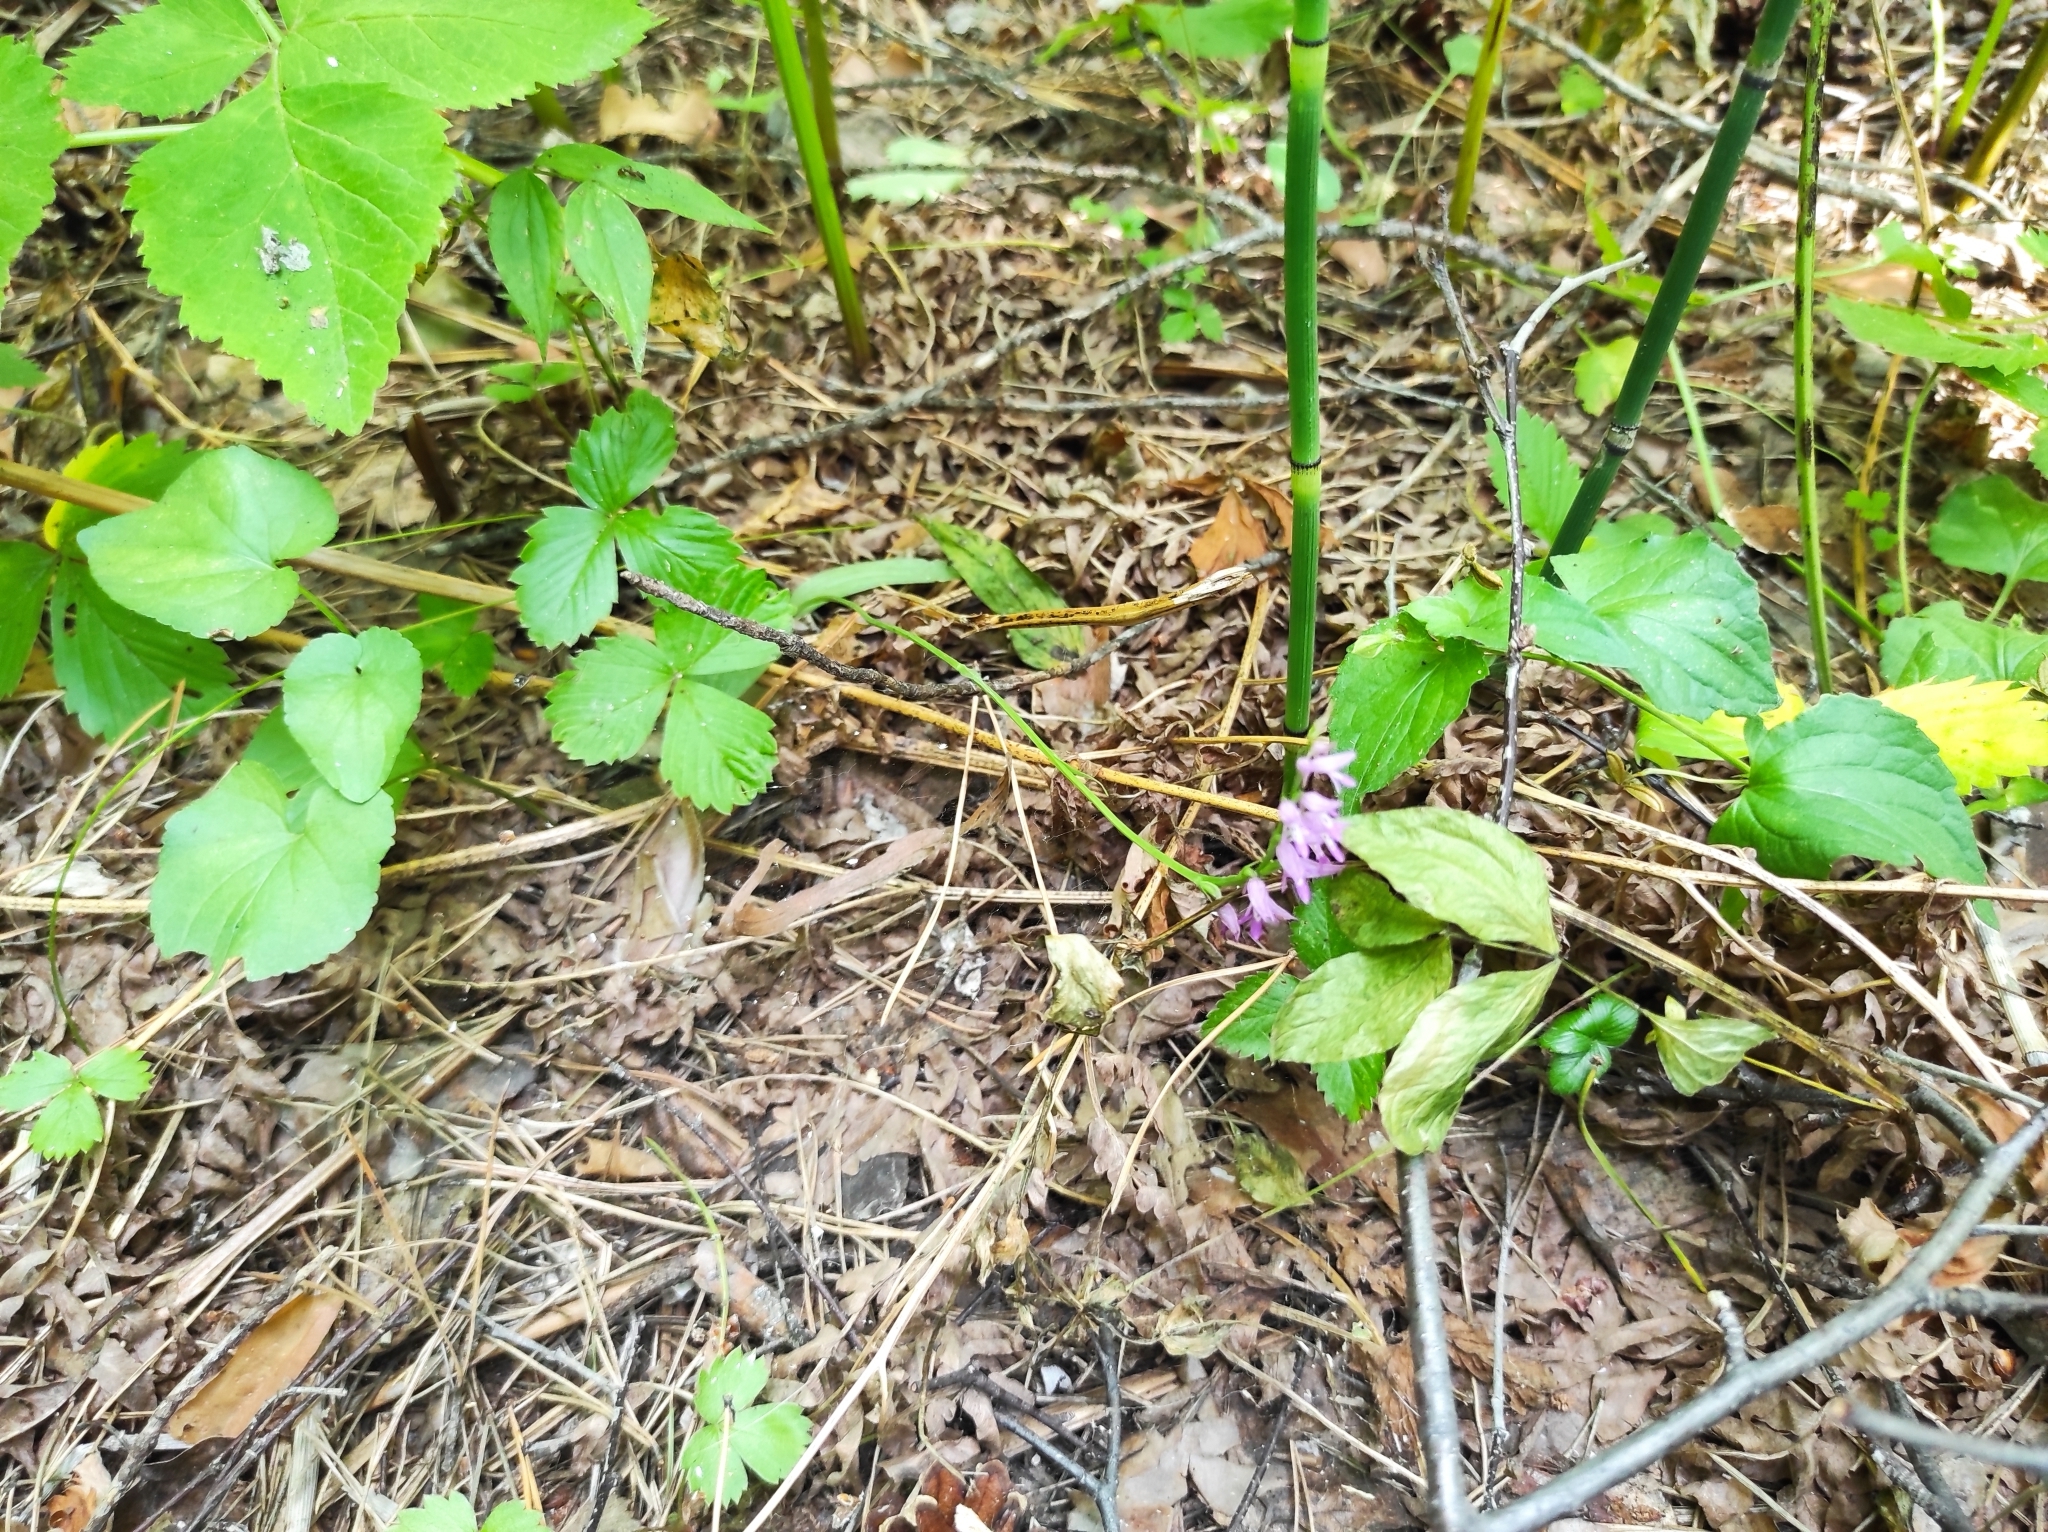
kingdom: Plantae
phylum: Tracheophyta
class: Liliopsida
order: Asparagales
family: Orchidaceae
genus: Hemipilia
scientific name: Hemipilia cucullata
